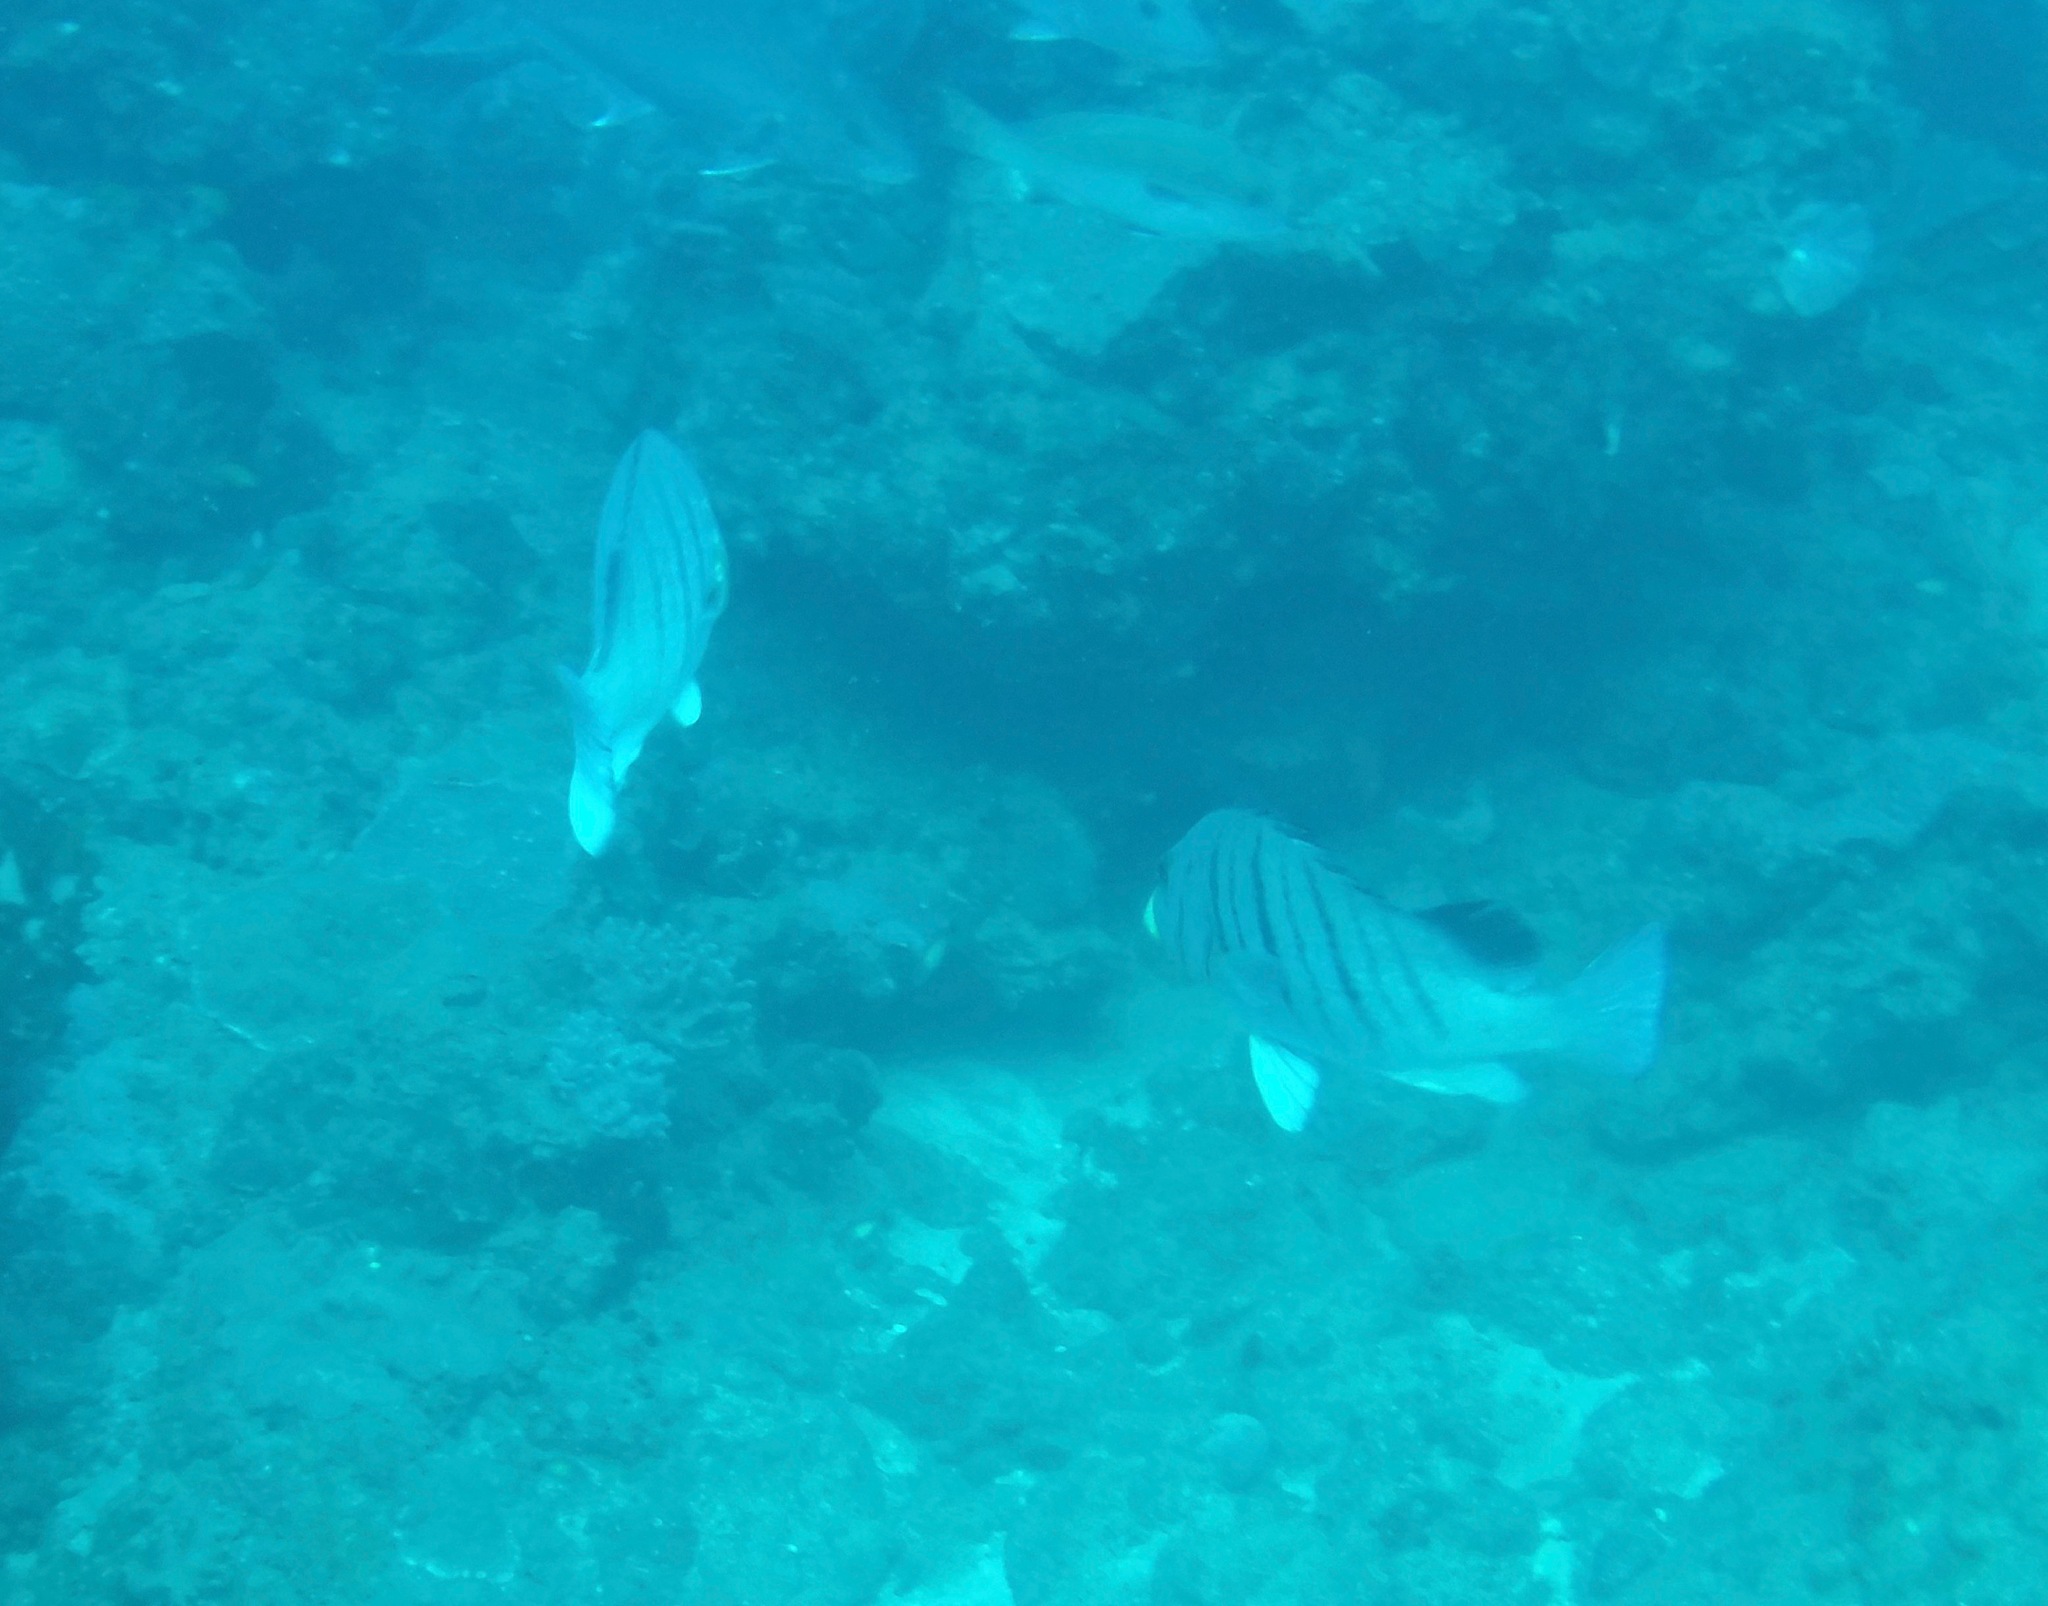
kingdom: Animalia
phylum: Chordata
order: Perciformes
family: Haemulidae
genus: Plectorhinchus
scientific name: Plectorhinchus plagiodesmus
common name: Barred rubberlip
